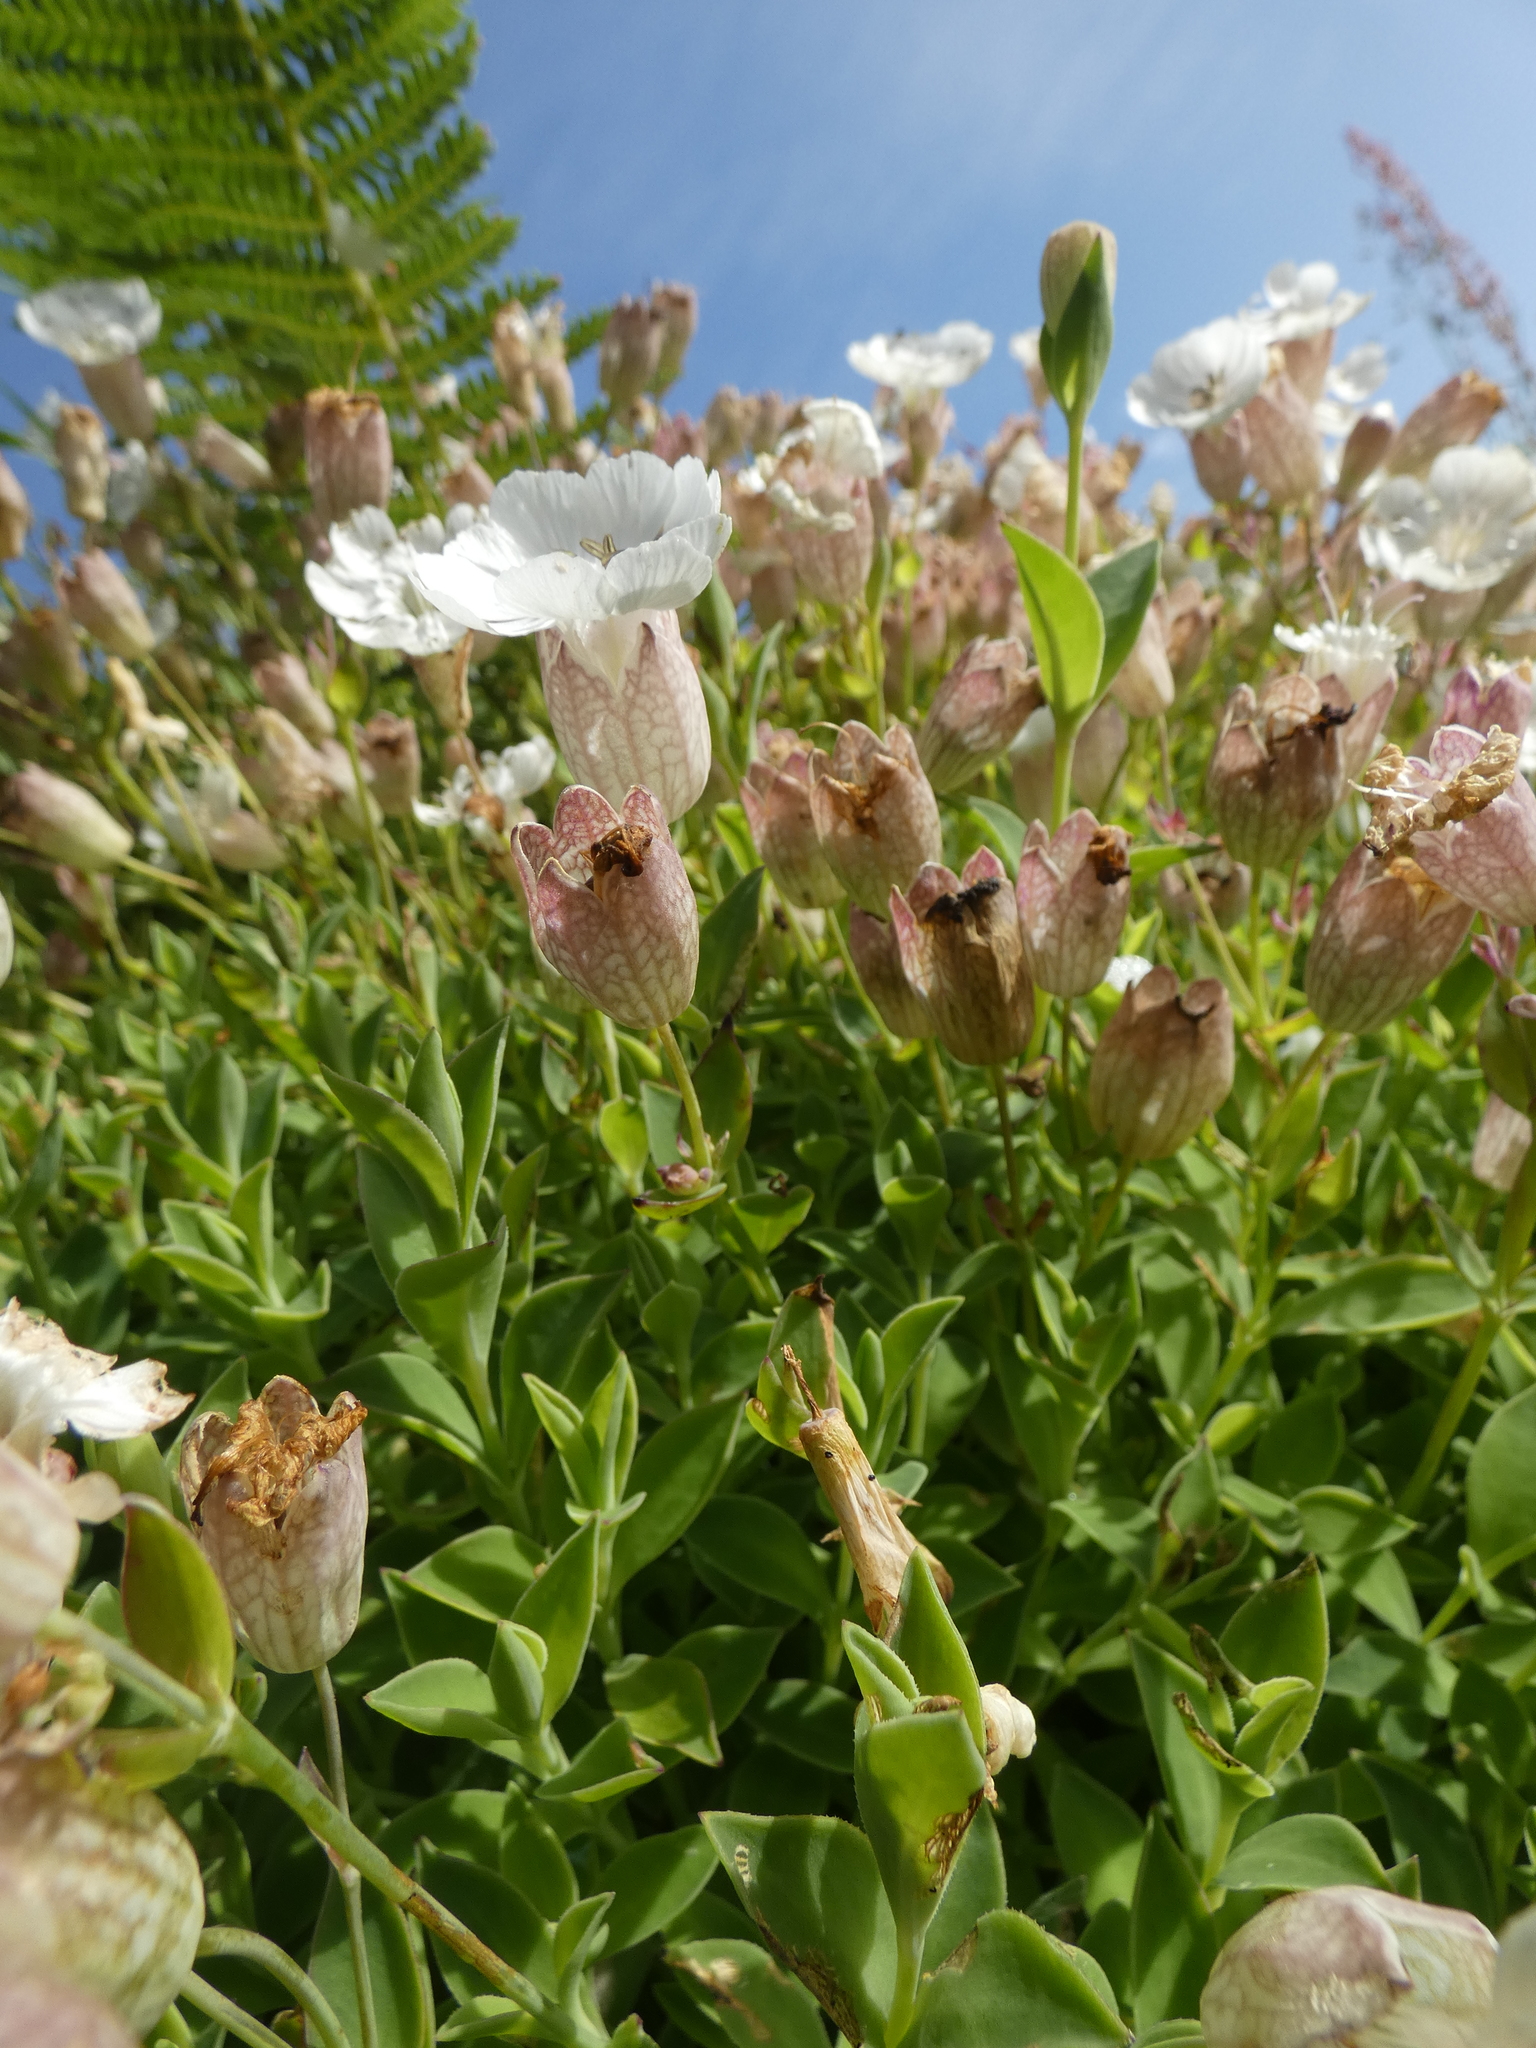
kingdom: Plantae
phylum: Tracheophyta
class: Magnoliopsida
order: Caryophyllales
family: Caryophyllaceae
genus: Silene
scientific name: Silene uniflora
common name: Sea campion
